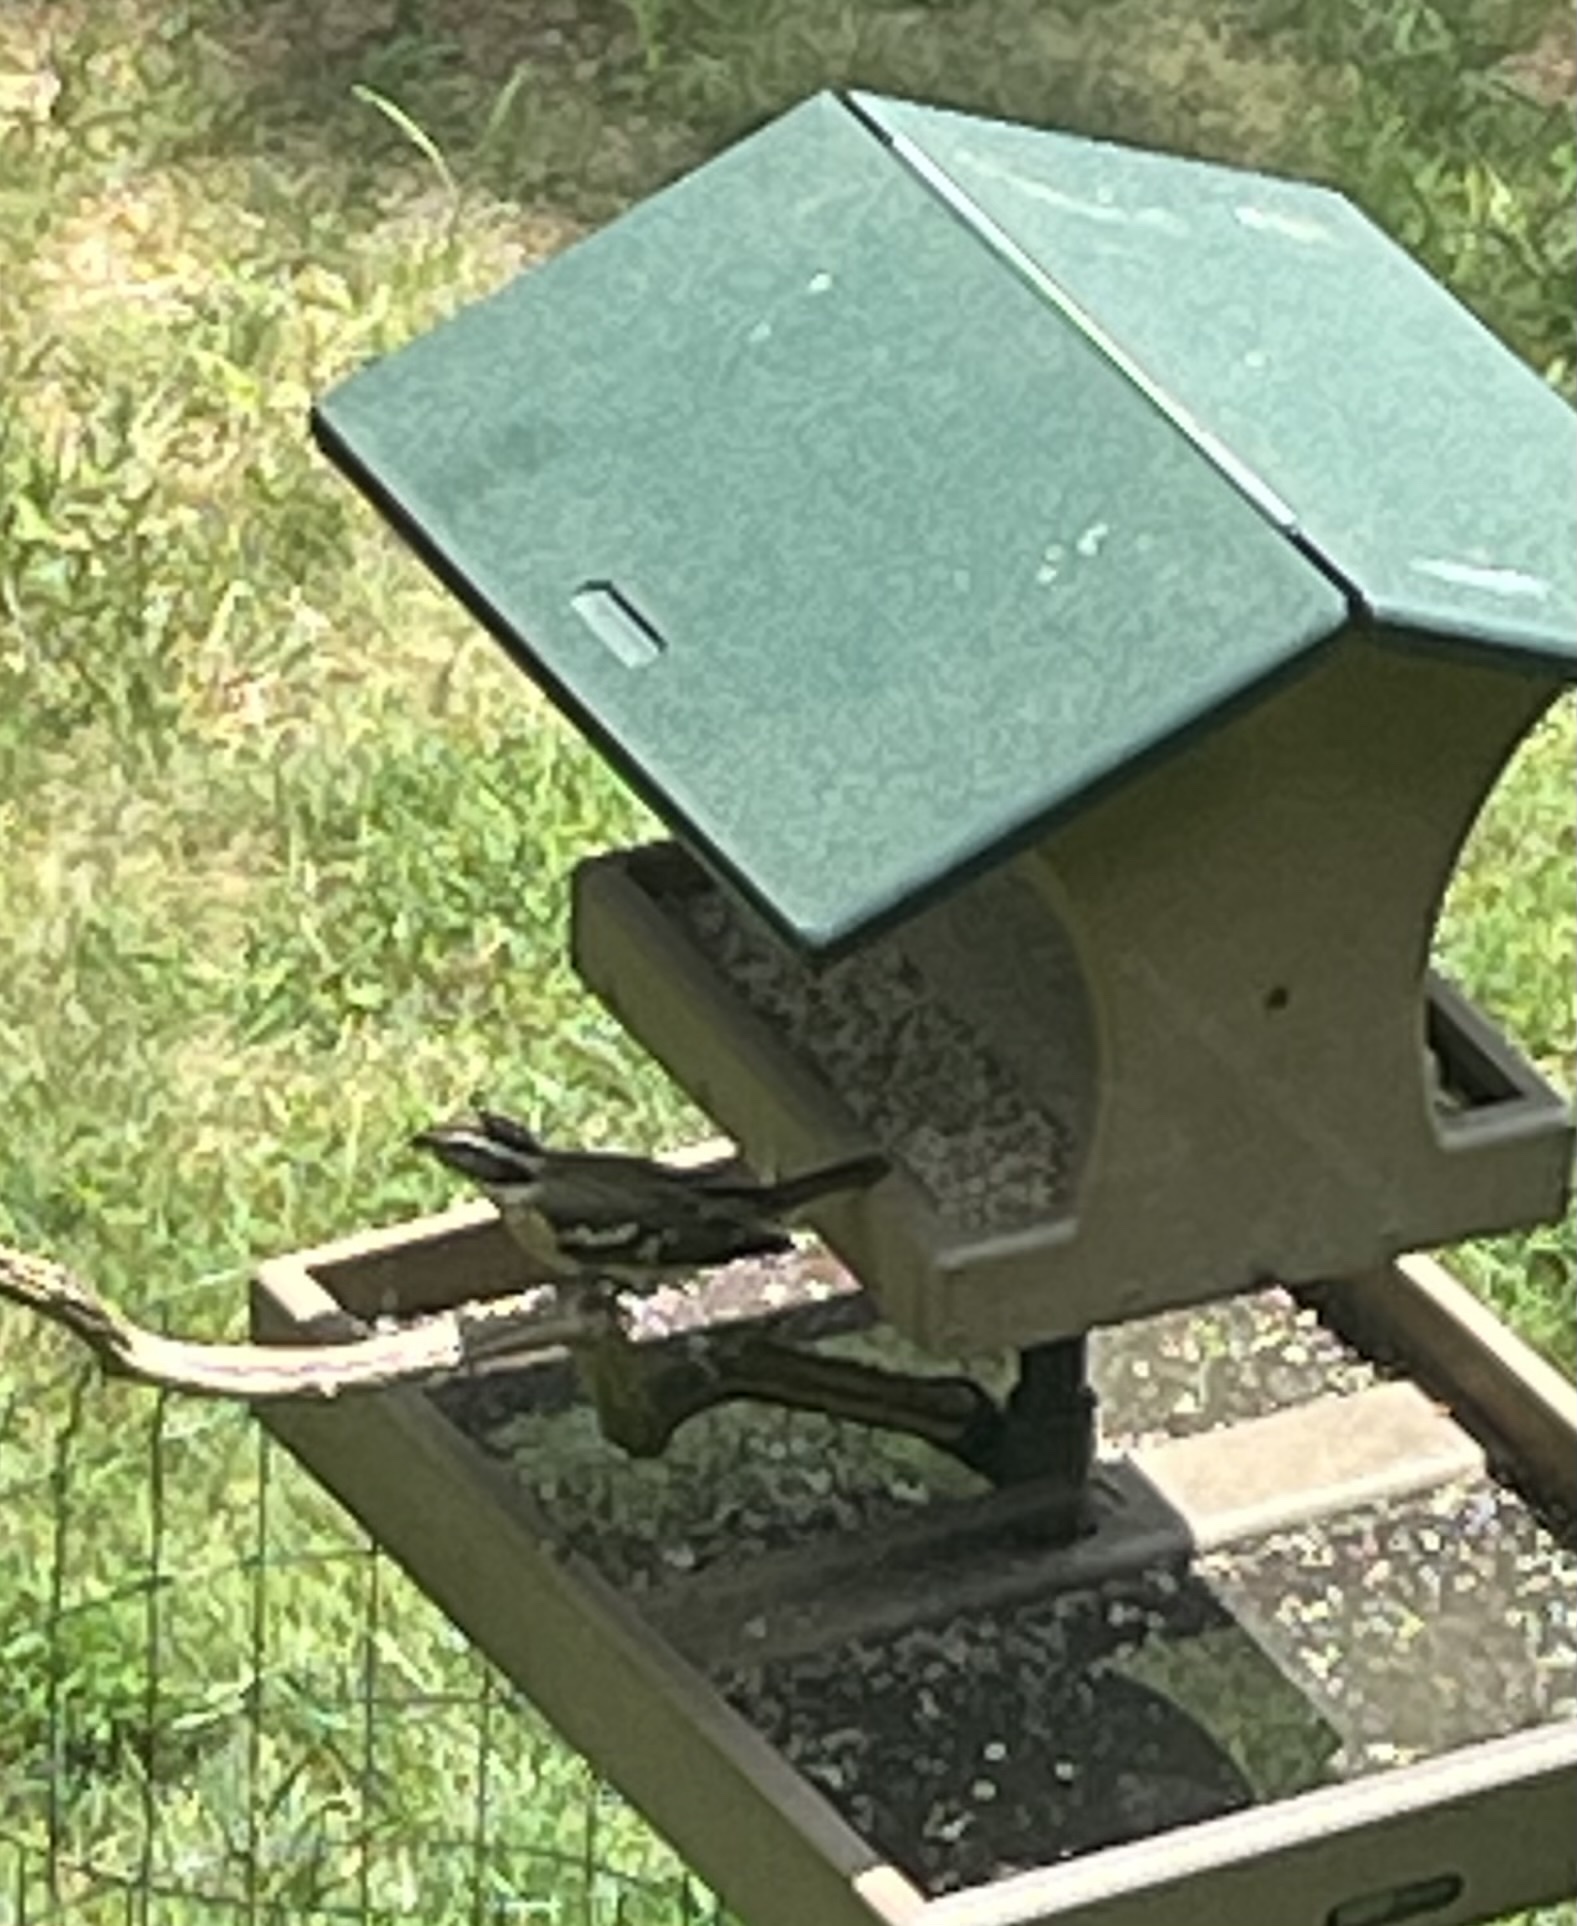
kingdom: Animalia
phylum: Chordata
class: Aves
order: Passeriformes
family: Cardinalidae
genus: Pheucticus
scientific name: Pheucticus ludovicianus
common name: Rose-breasted grosbeak
